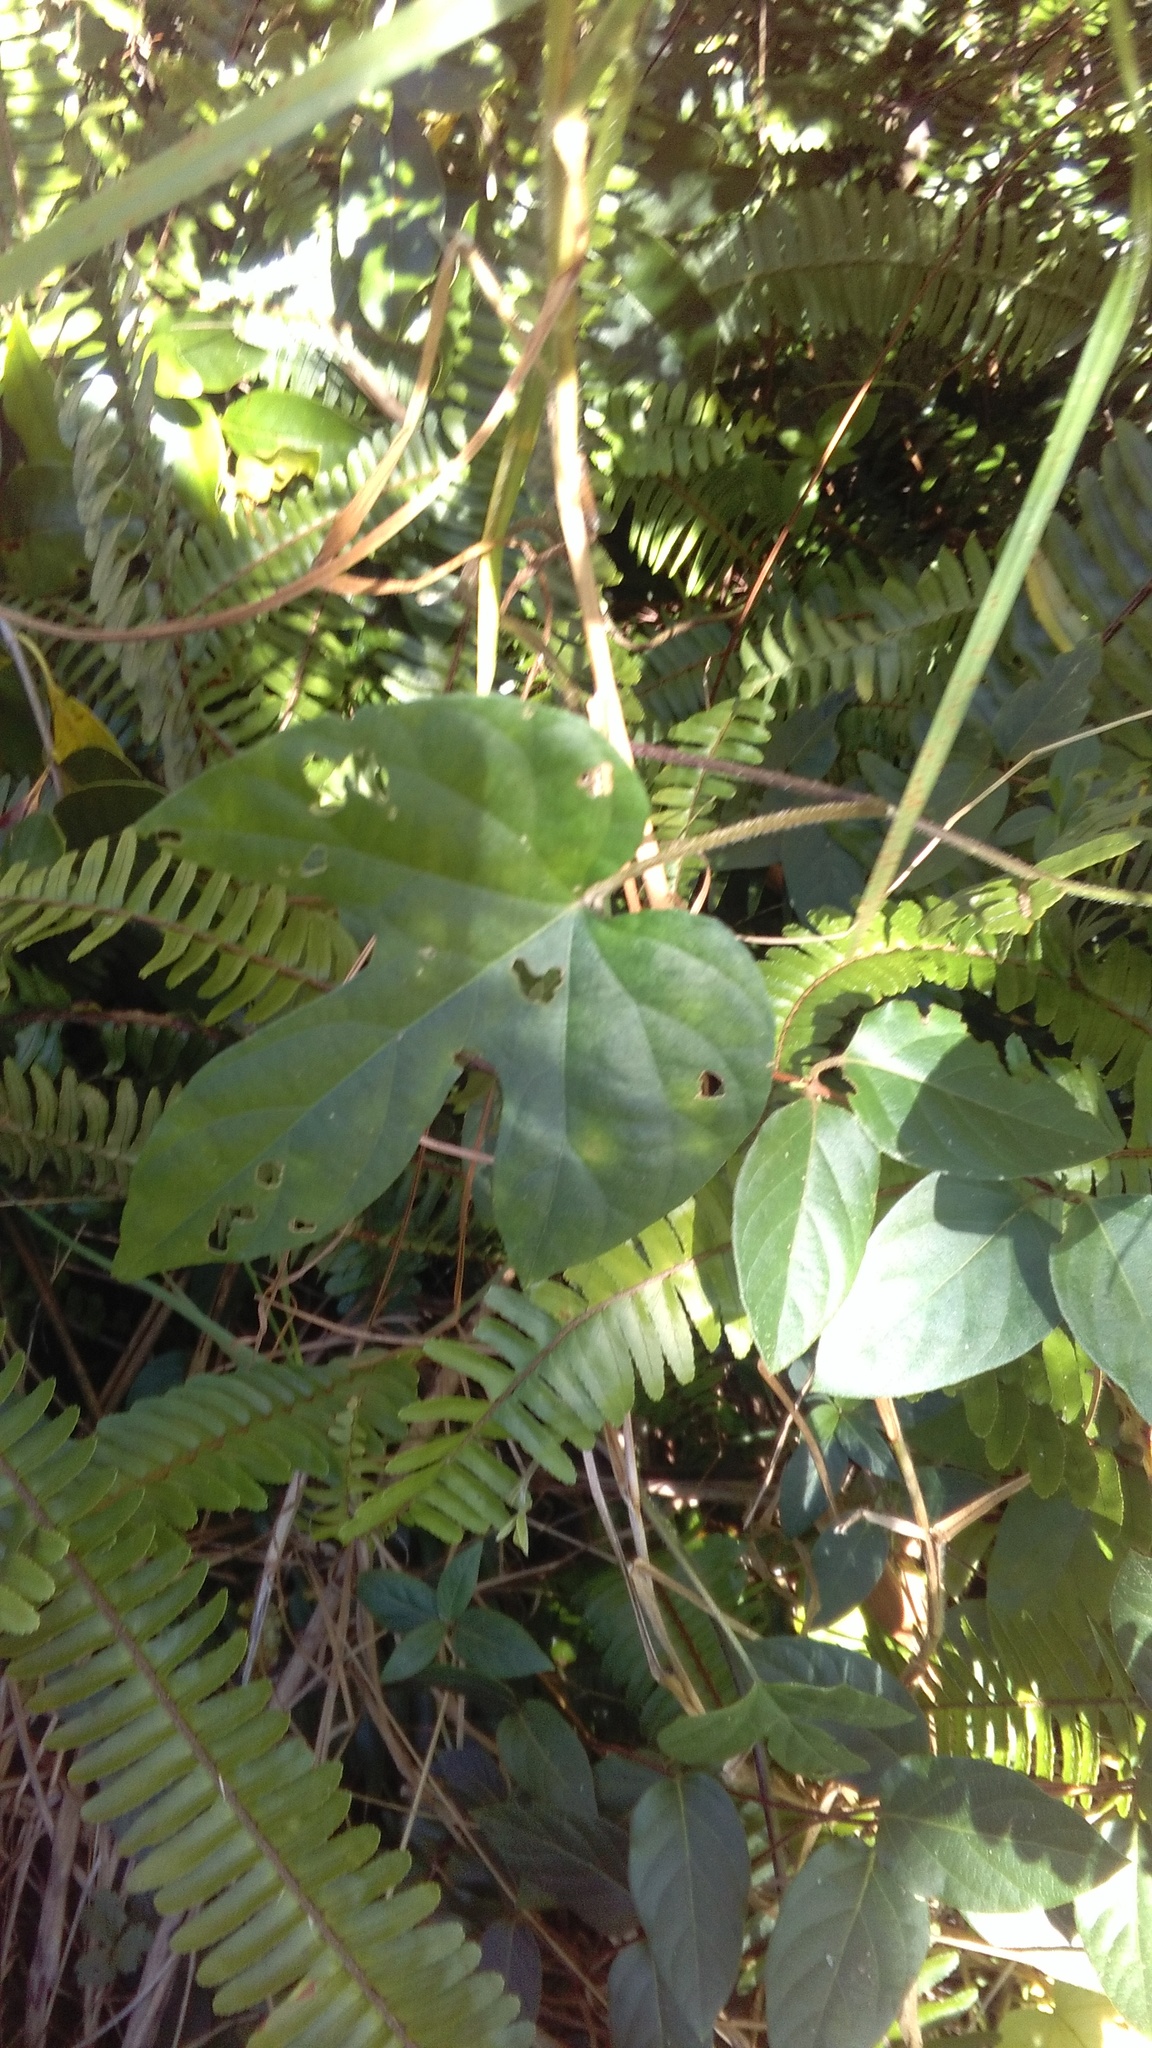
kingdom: Plantae
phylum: Tracheophyta
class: Magnoliopsida
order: Solanales
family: Convolvulaceae
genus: Ipomoea
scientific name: Ipomoea indica
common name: Blue dawnflower
